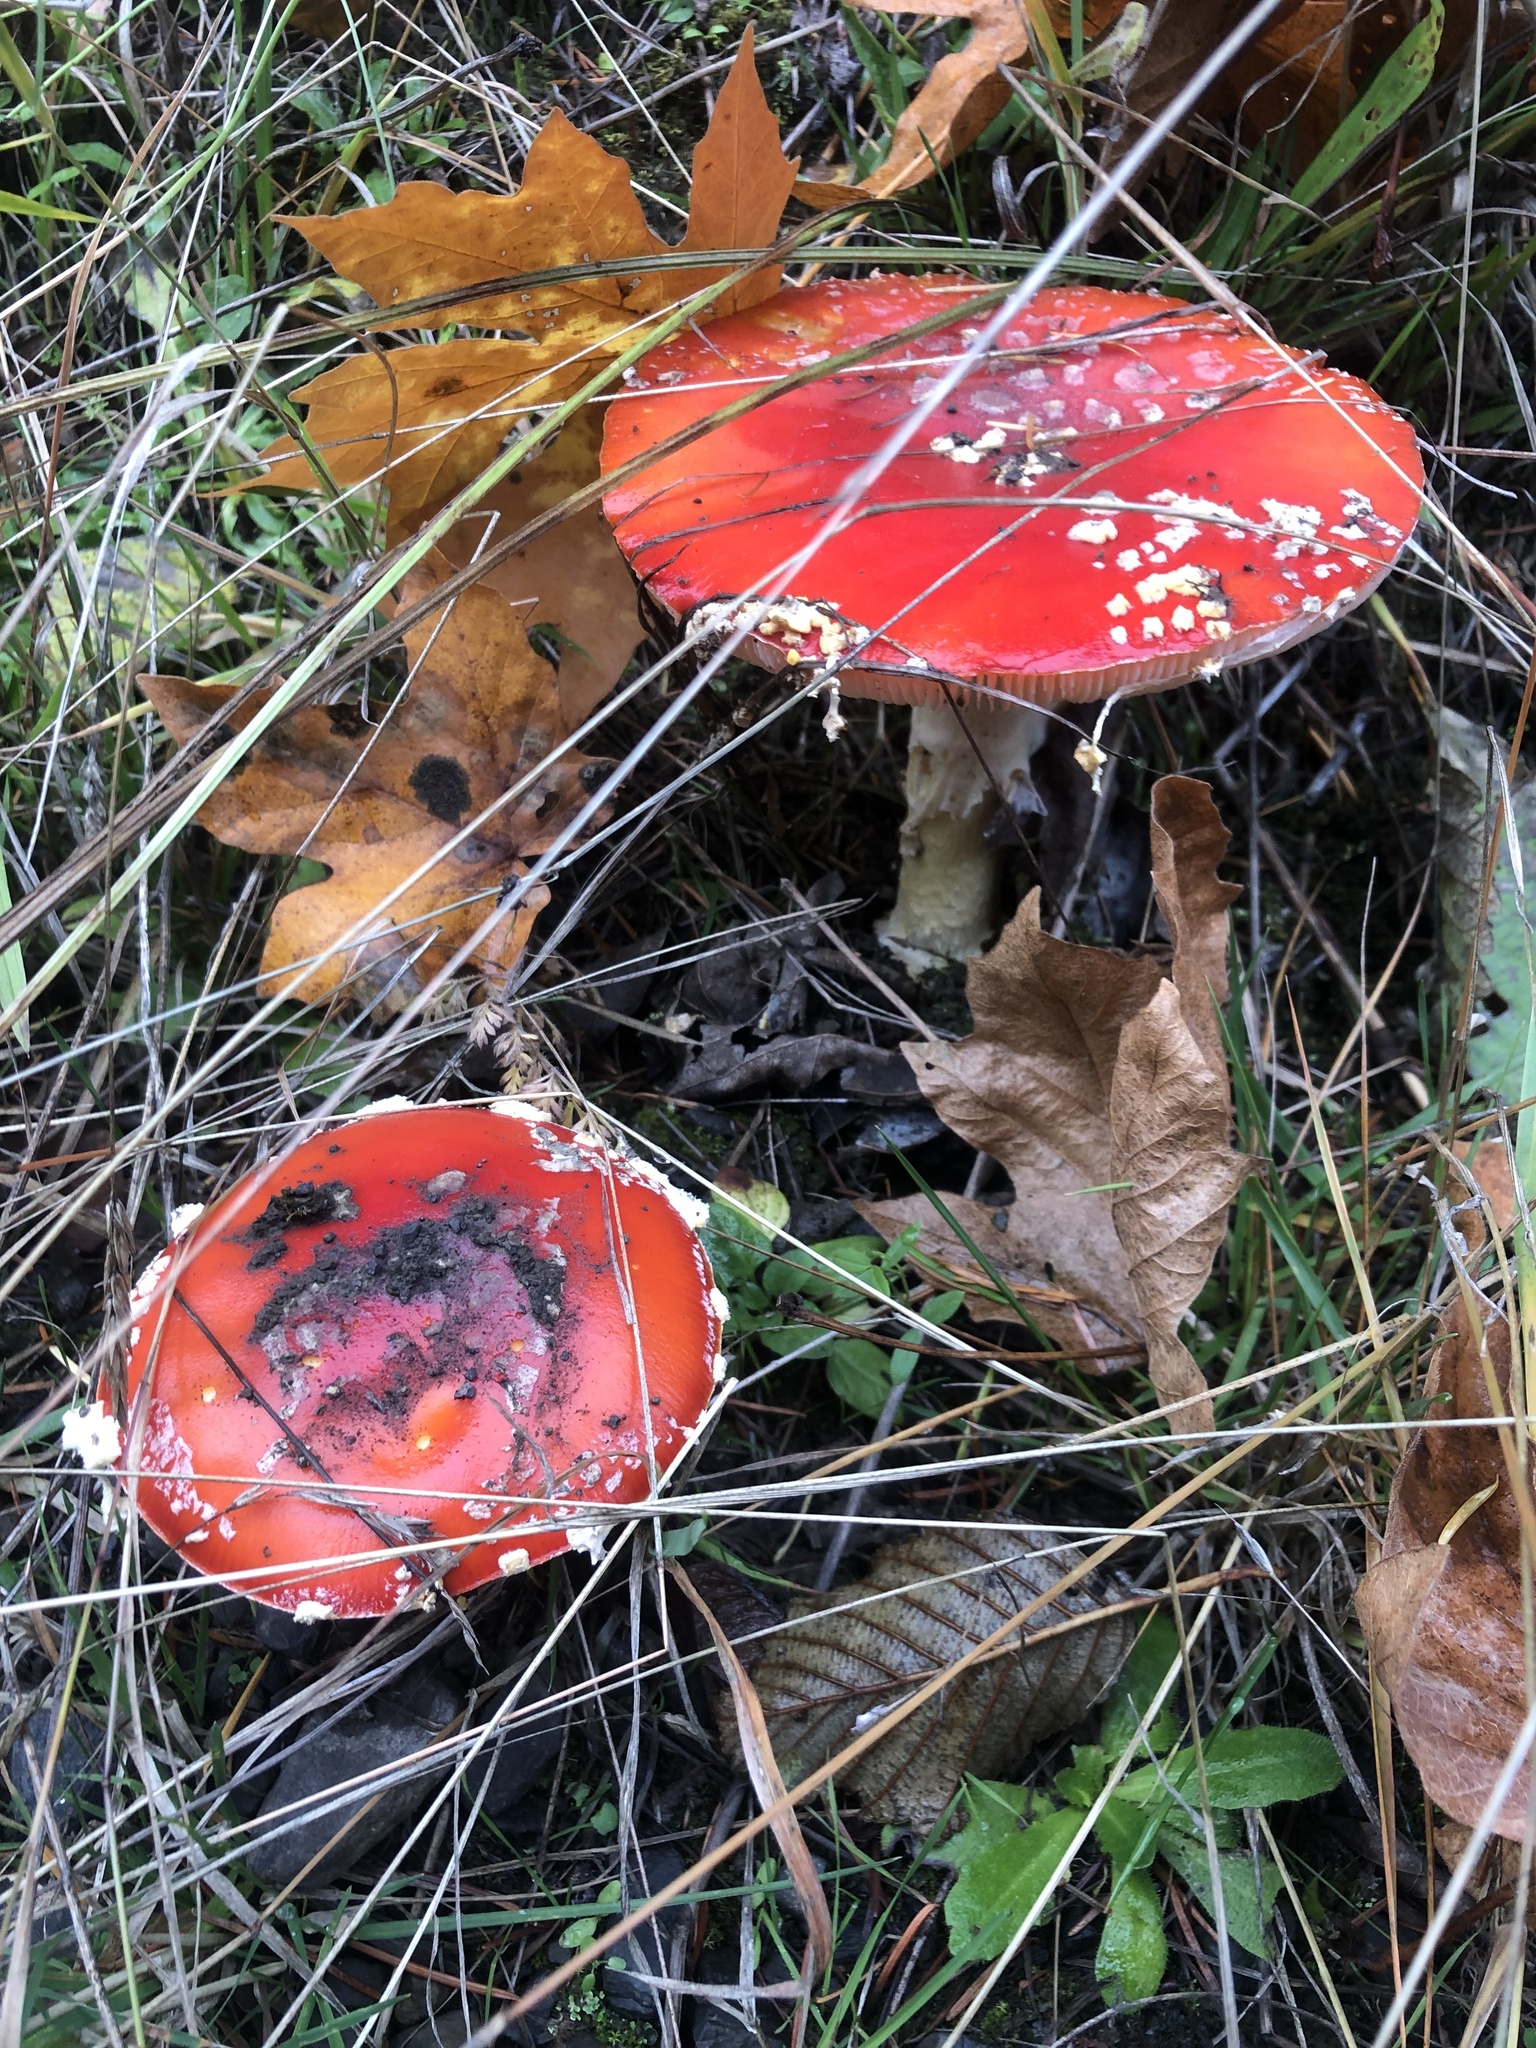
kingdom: Fungi
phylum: Basidiomycota
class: Agaricomycetes
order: Agaricales
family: Amanitaceae
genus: Amanita
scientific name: Amanita muscaria
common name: Fly agaric
